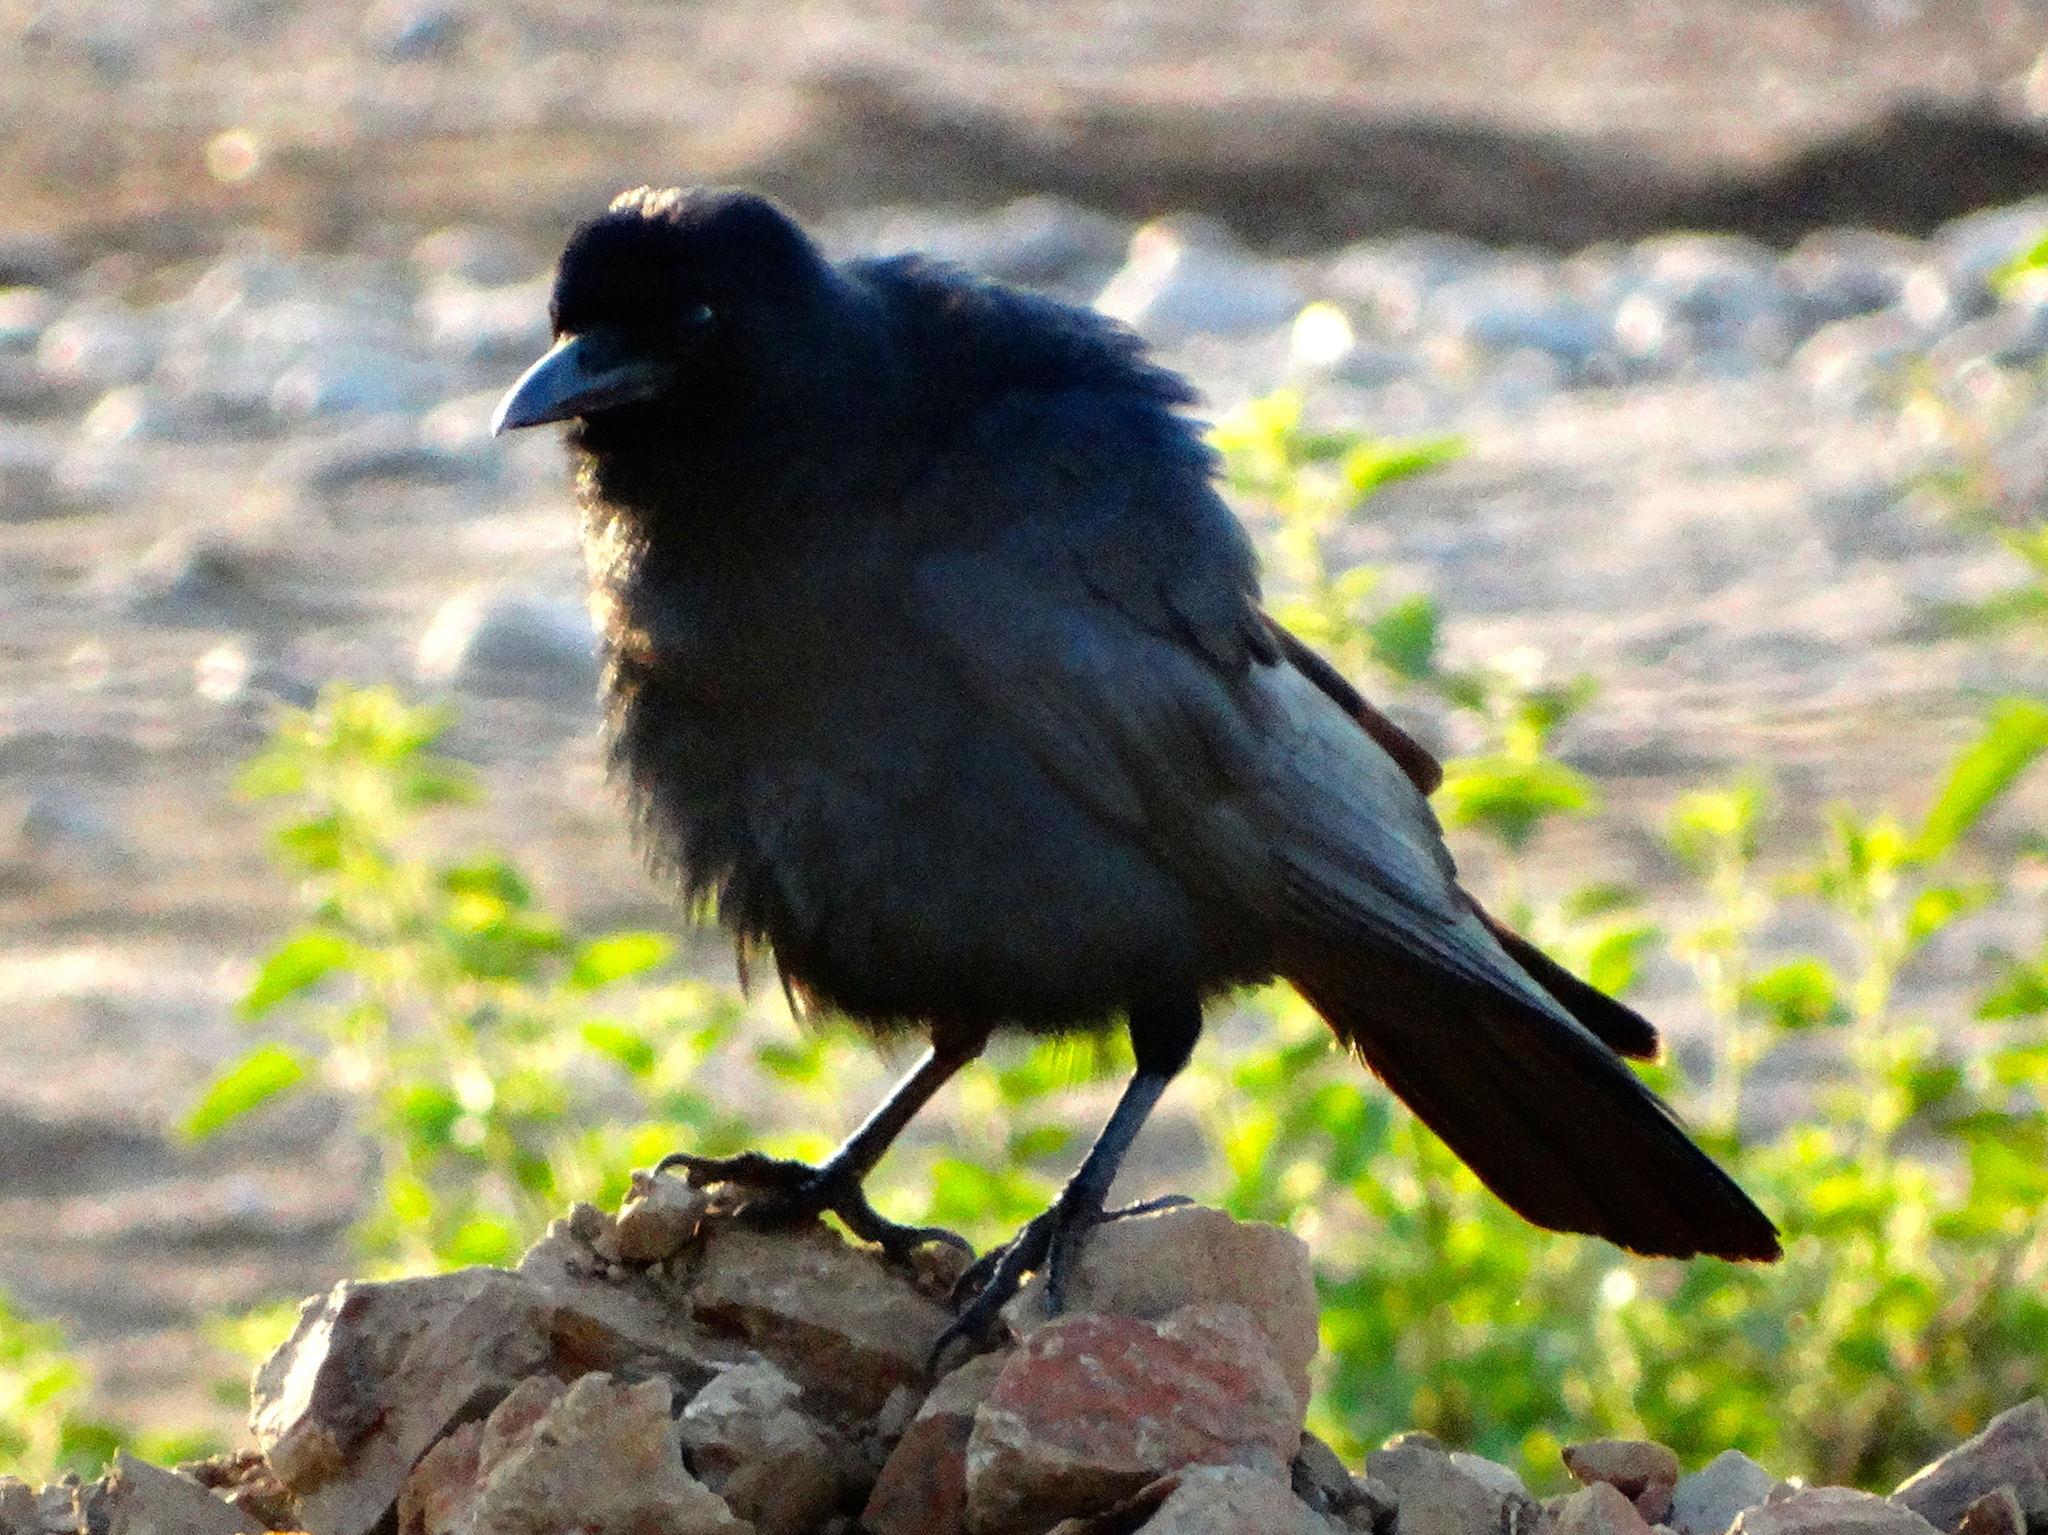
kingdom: Animalia
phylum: Chordata
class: Aves
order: Passeriformes
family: Corvidae
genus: Corvus
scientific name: Corvus sinaloae
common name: Sinaloa crow
